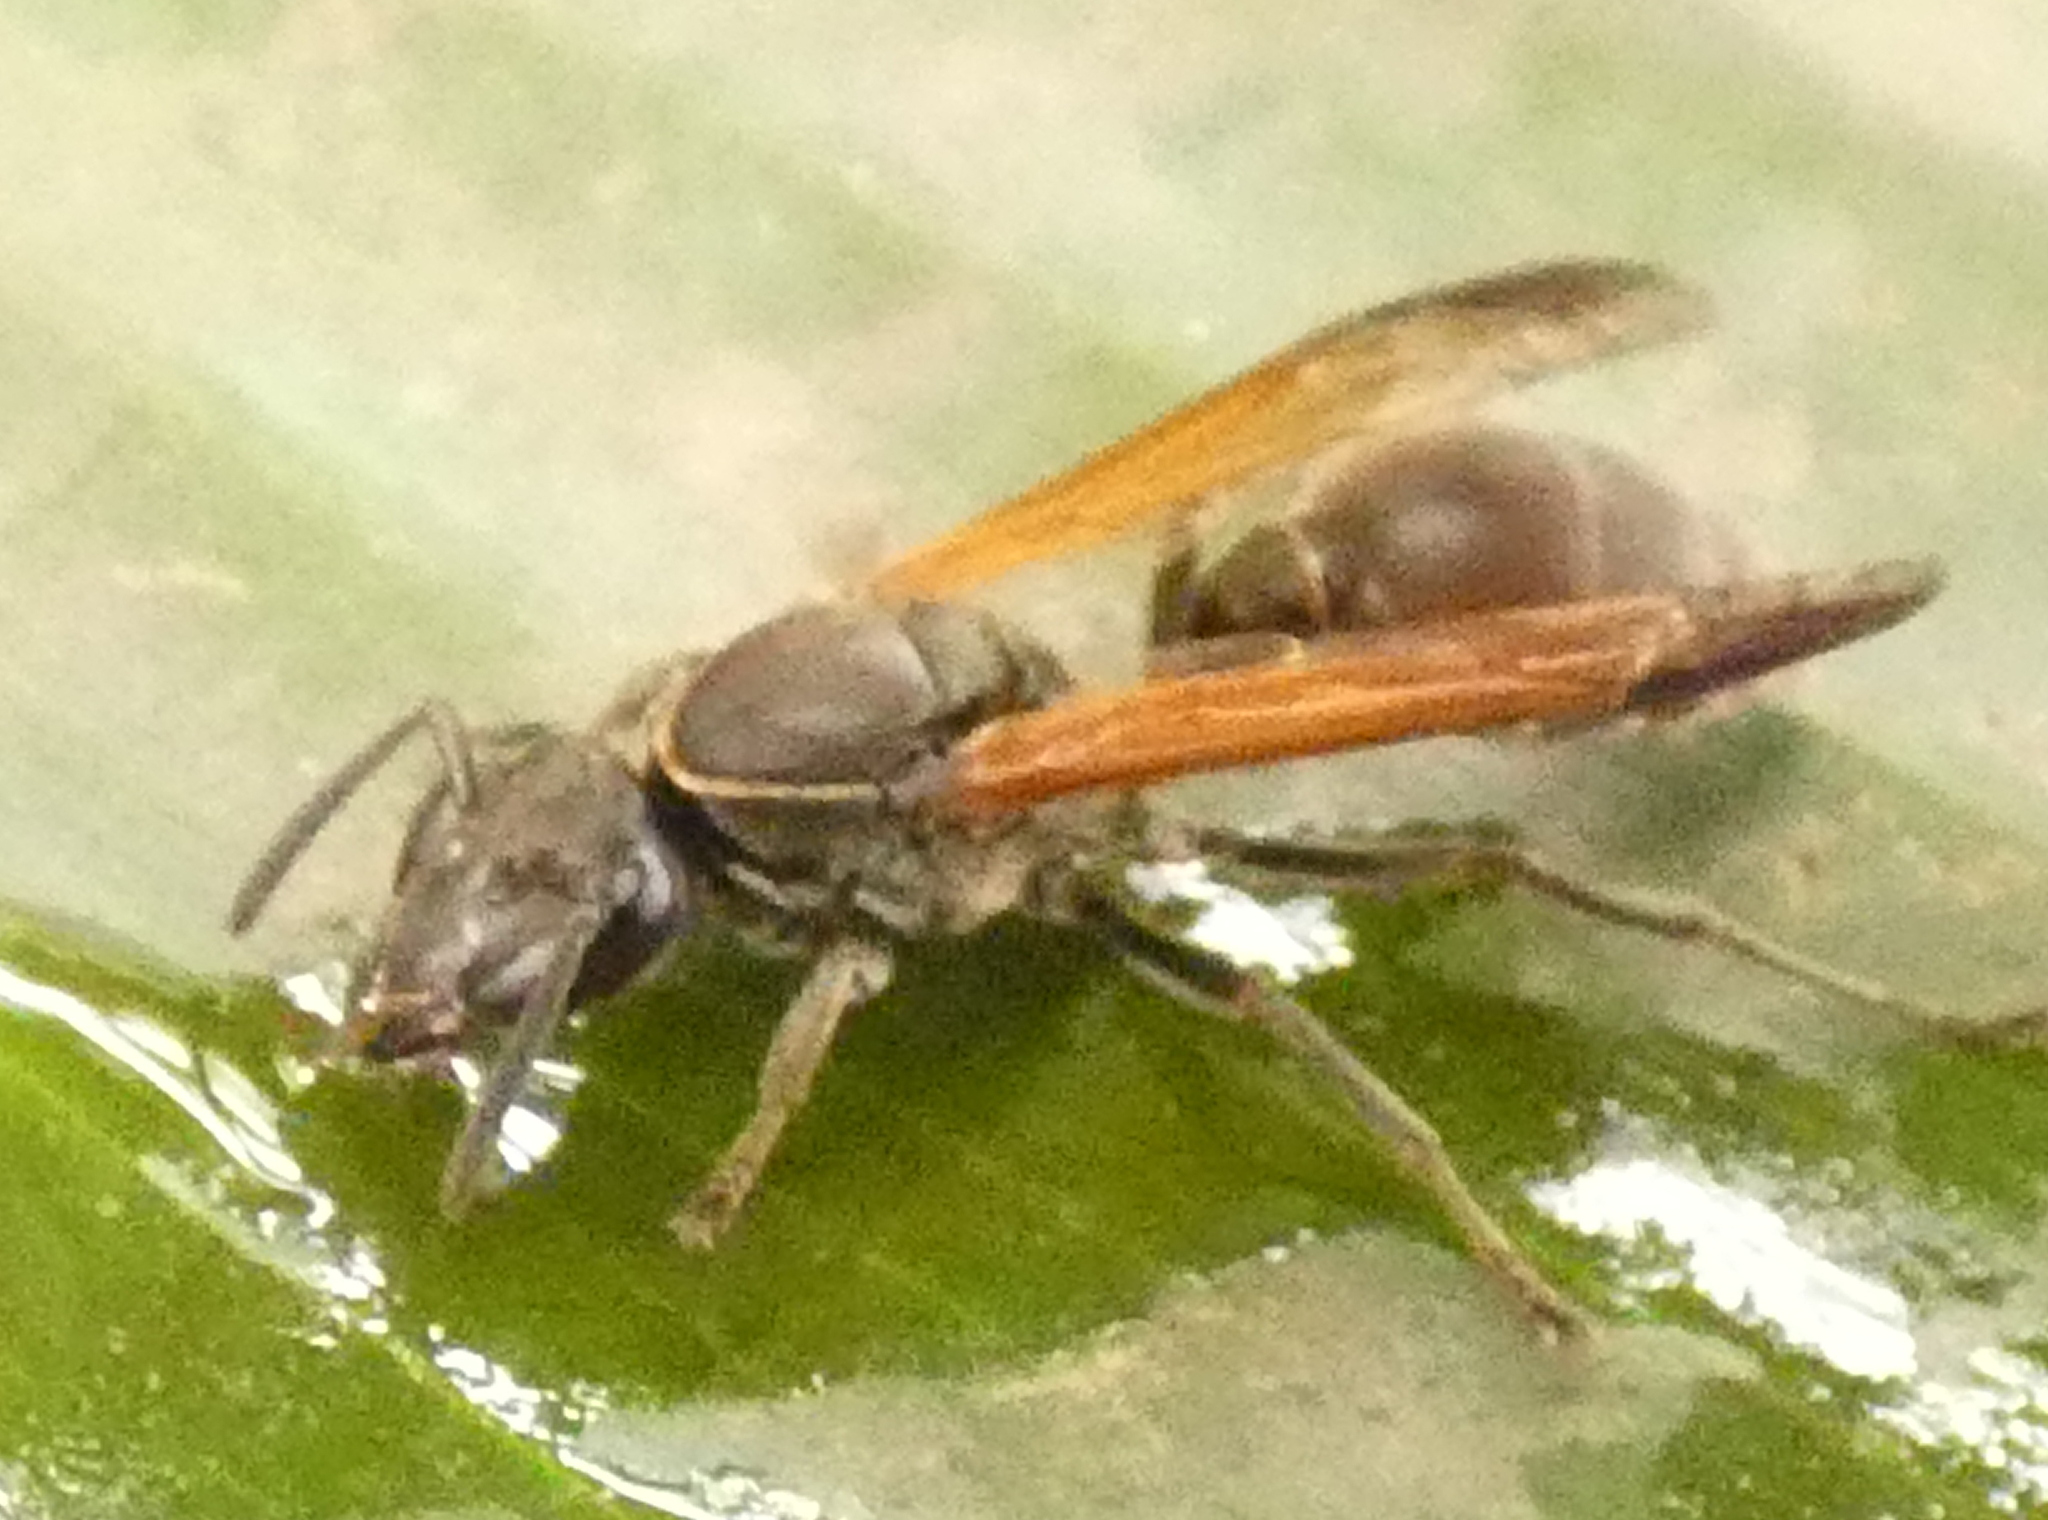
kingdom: Animalia
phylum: Arthropoda
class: Insecta
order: Hymenoptera
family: Eumenidae
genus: Polybia
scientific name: Polybia rejecta
